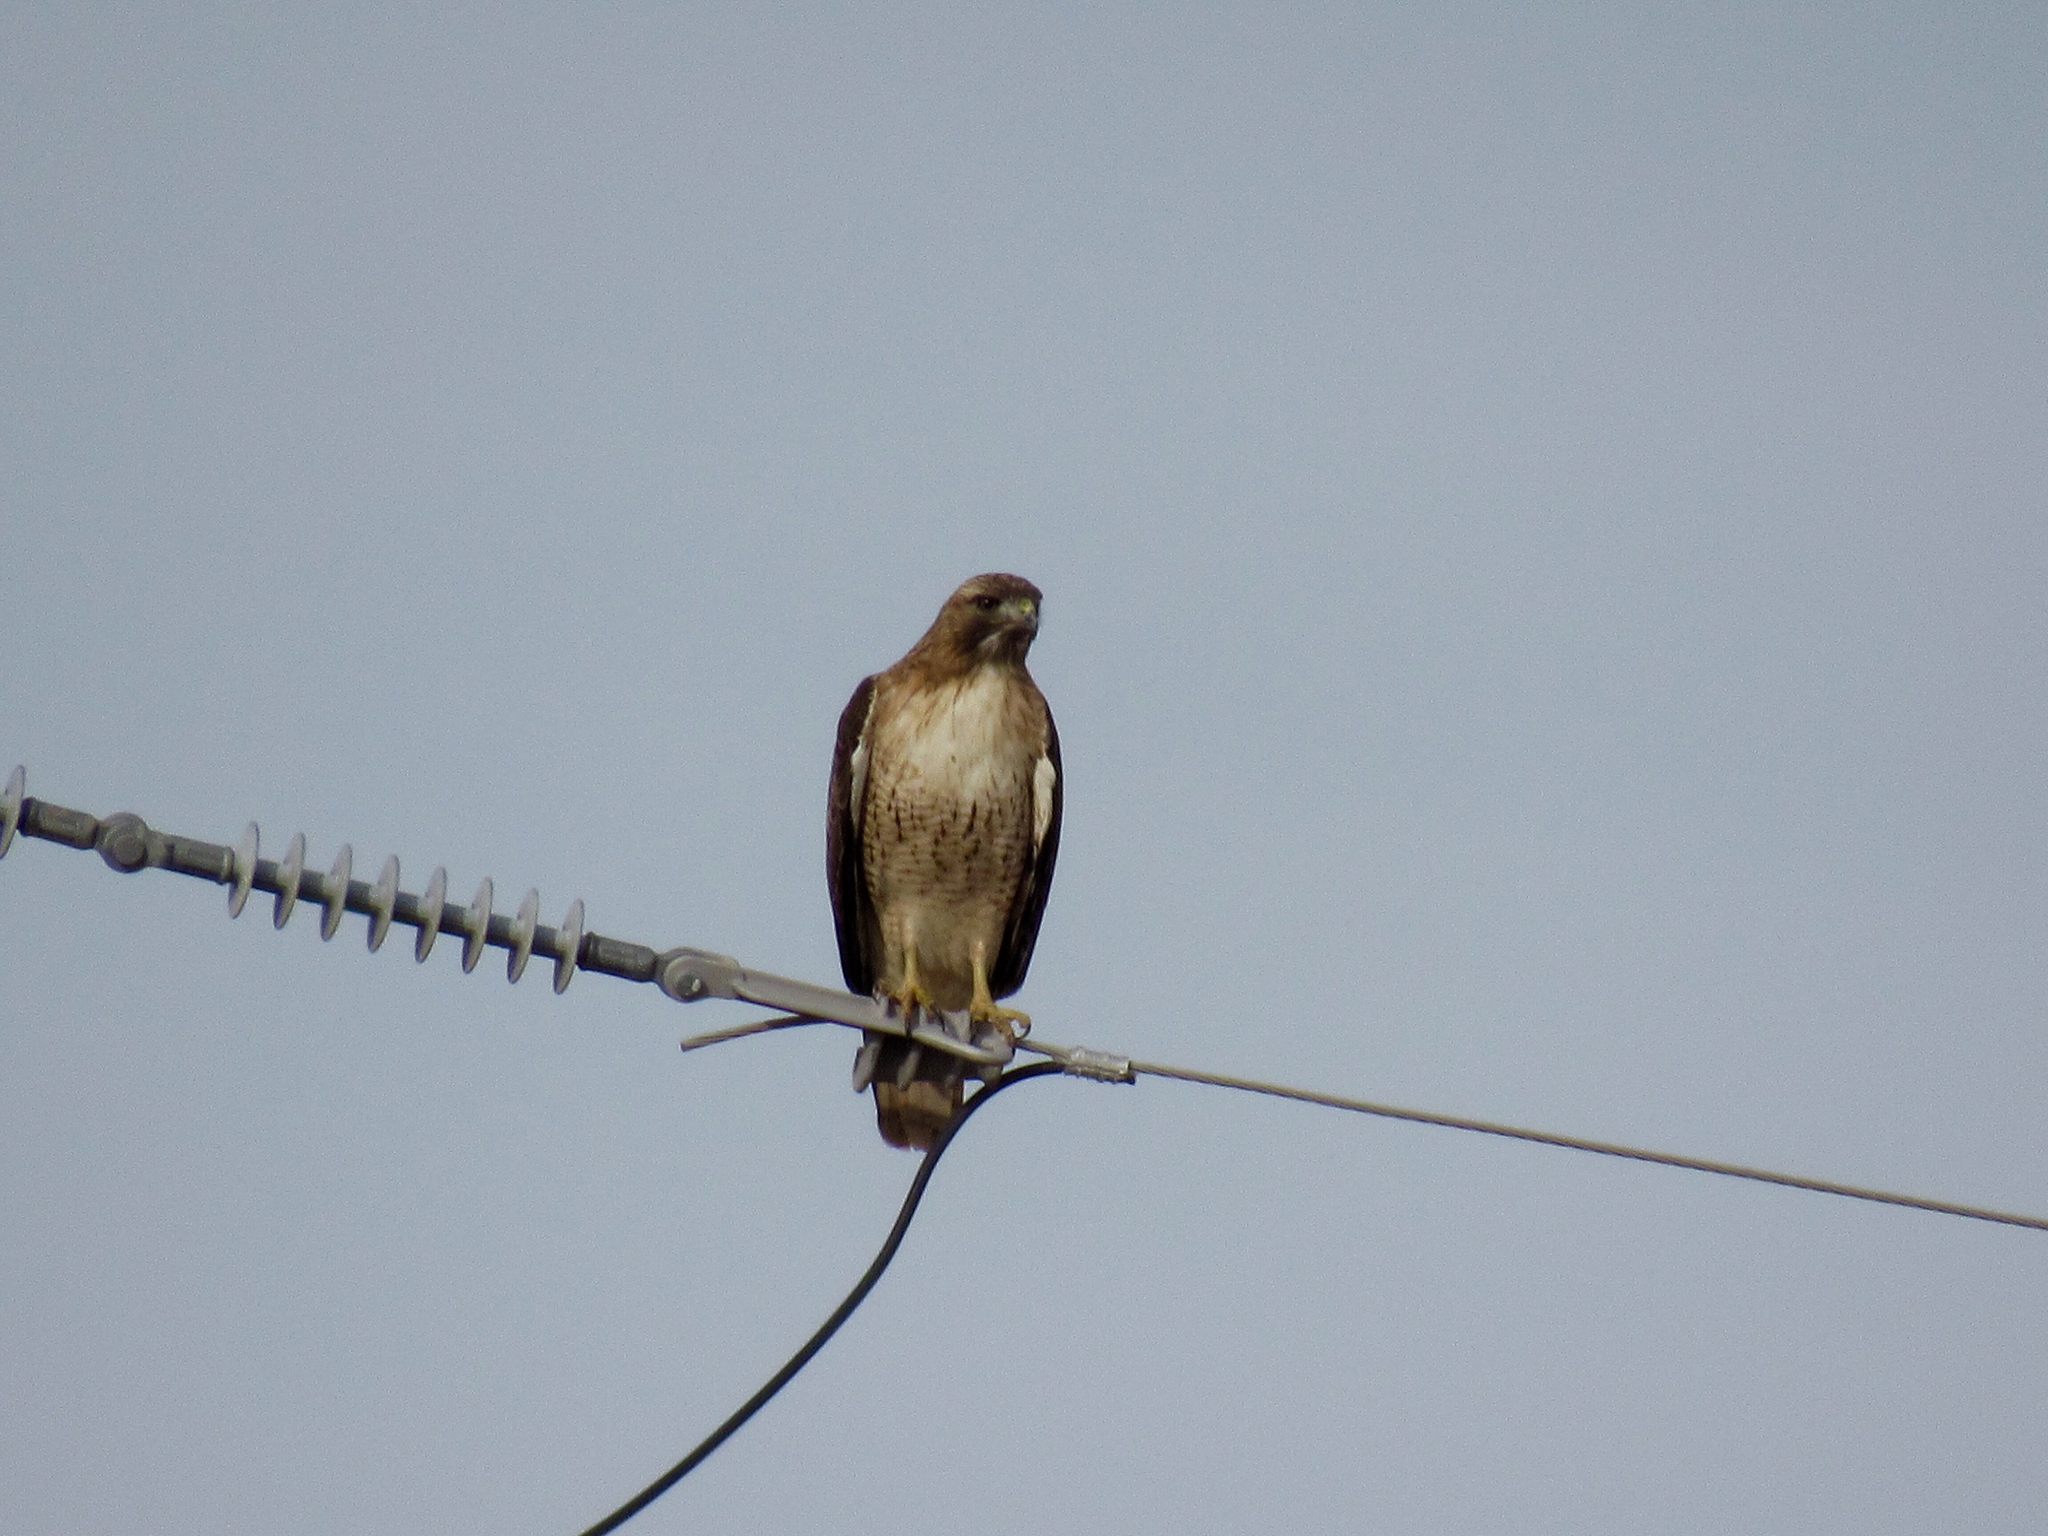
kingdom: Animalia
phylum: Chordata
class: Aves
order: Accipitriformes
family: Accipitridae
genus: Buteo
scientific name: Buteo jamaicensis
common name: Red-tailed hawk
